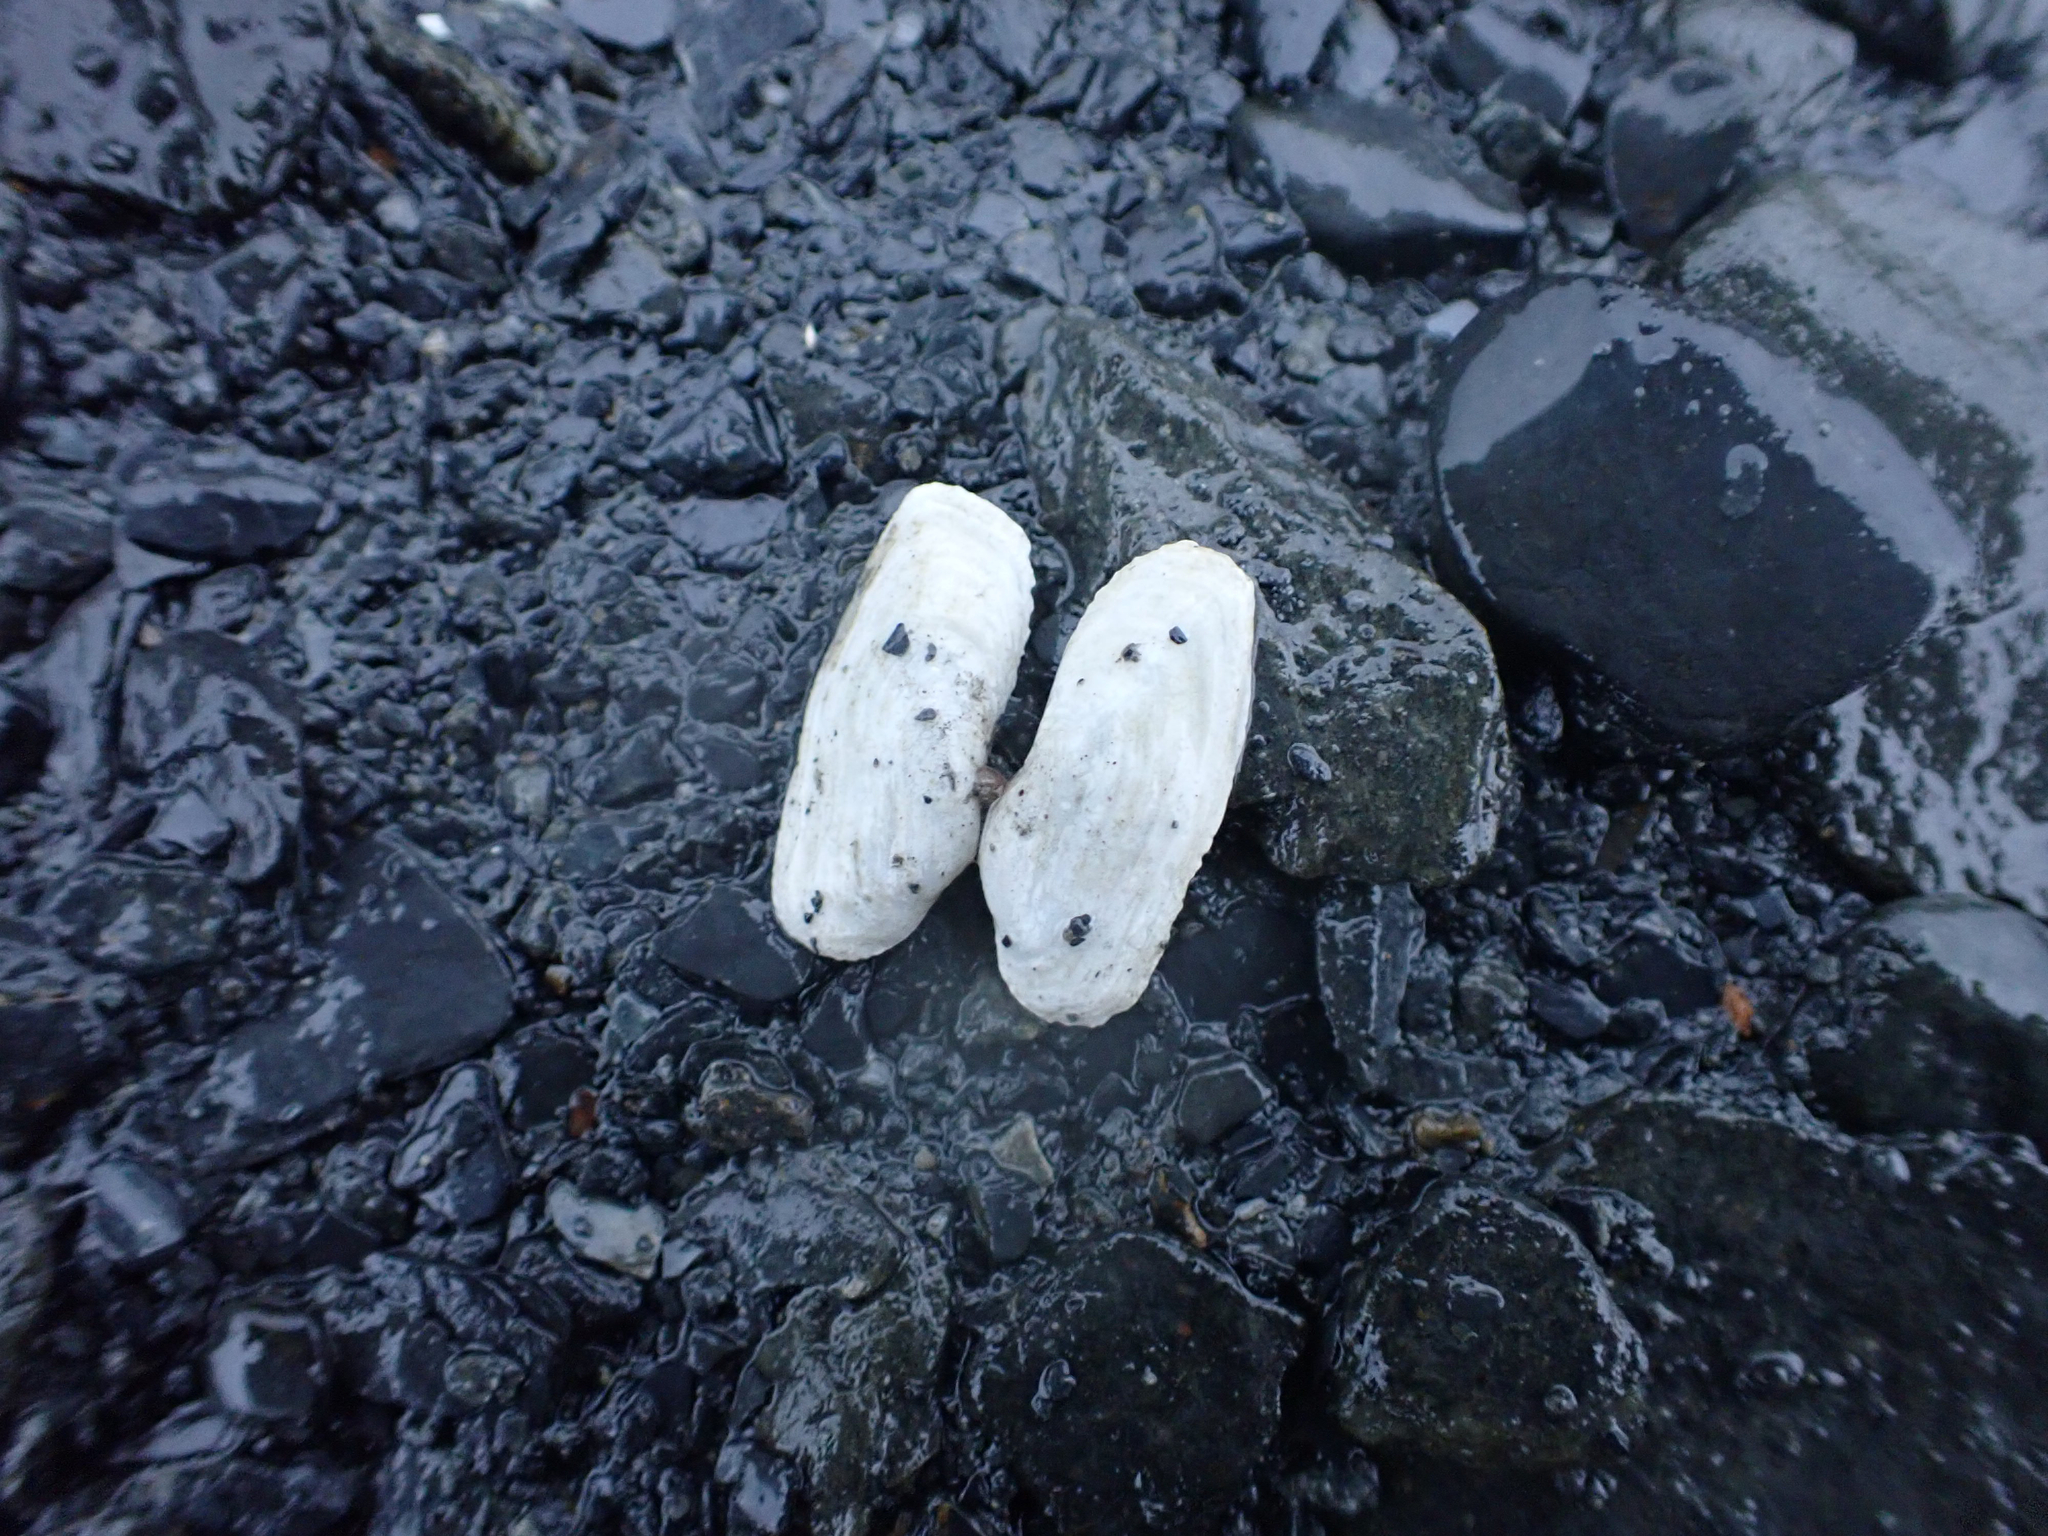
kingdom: Animalia
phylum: Mollusca
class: Bivalvia
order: Adapedonta
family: Hiatellidae
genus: Hiatella
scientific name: Hiatella arctica
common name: Arctic hiatella
